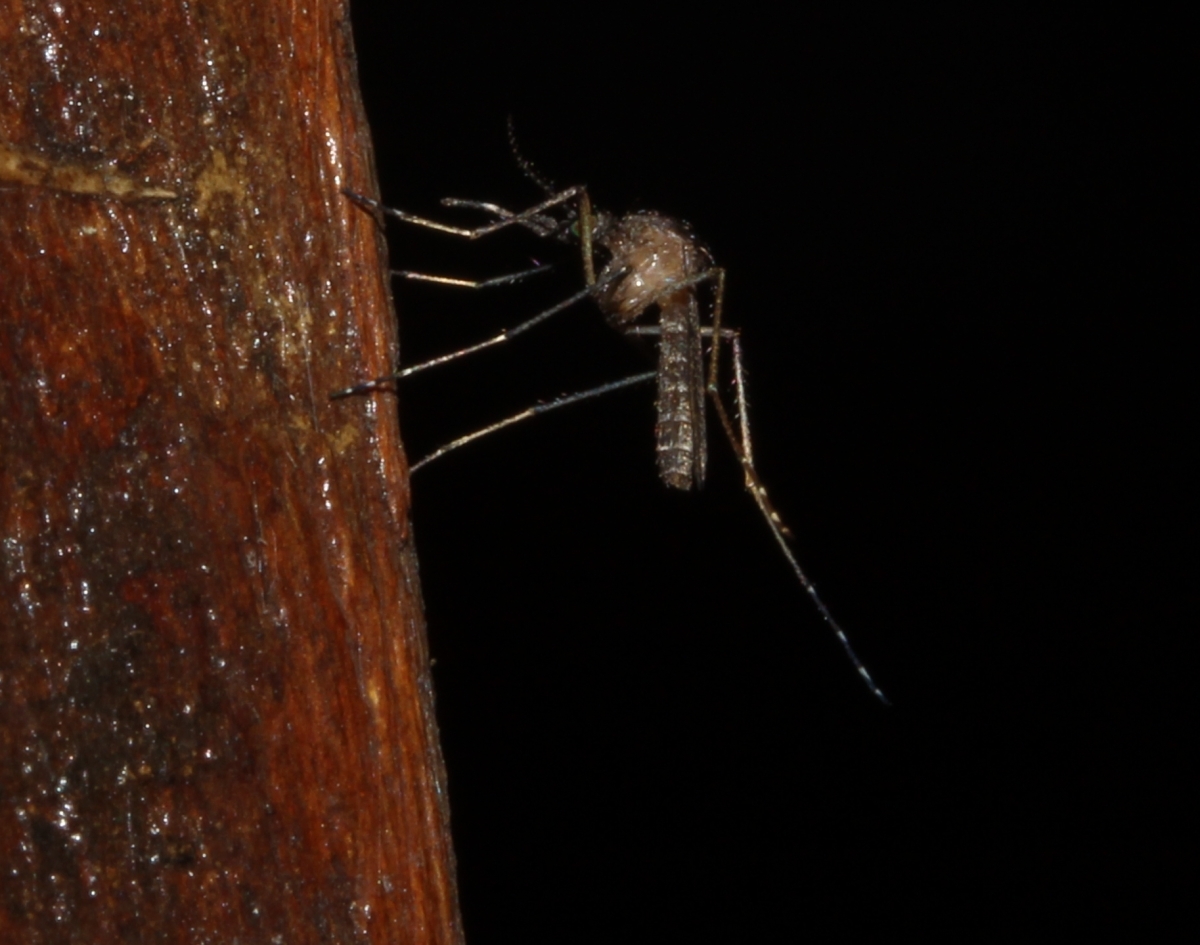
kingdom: Animalia
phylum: Arthropoda
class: Insecta
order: Diptera
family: Culicidae
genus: Mansonia
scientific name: Mansonia
